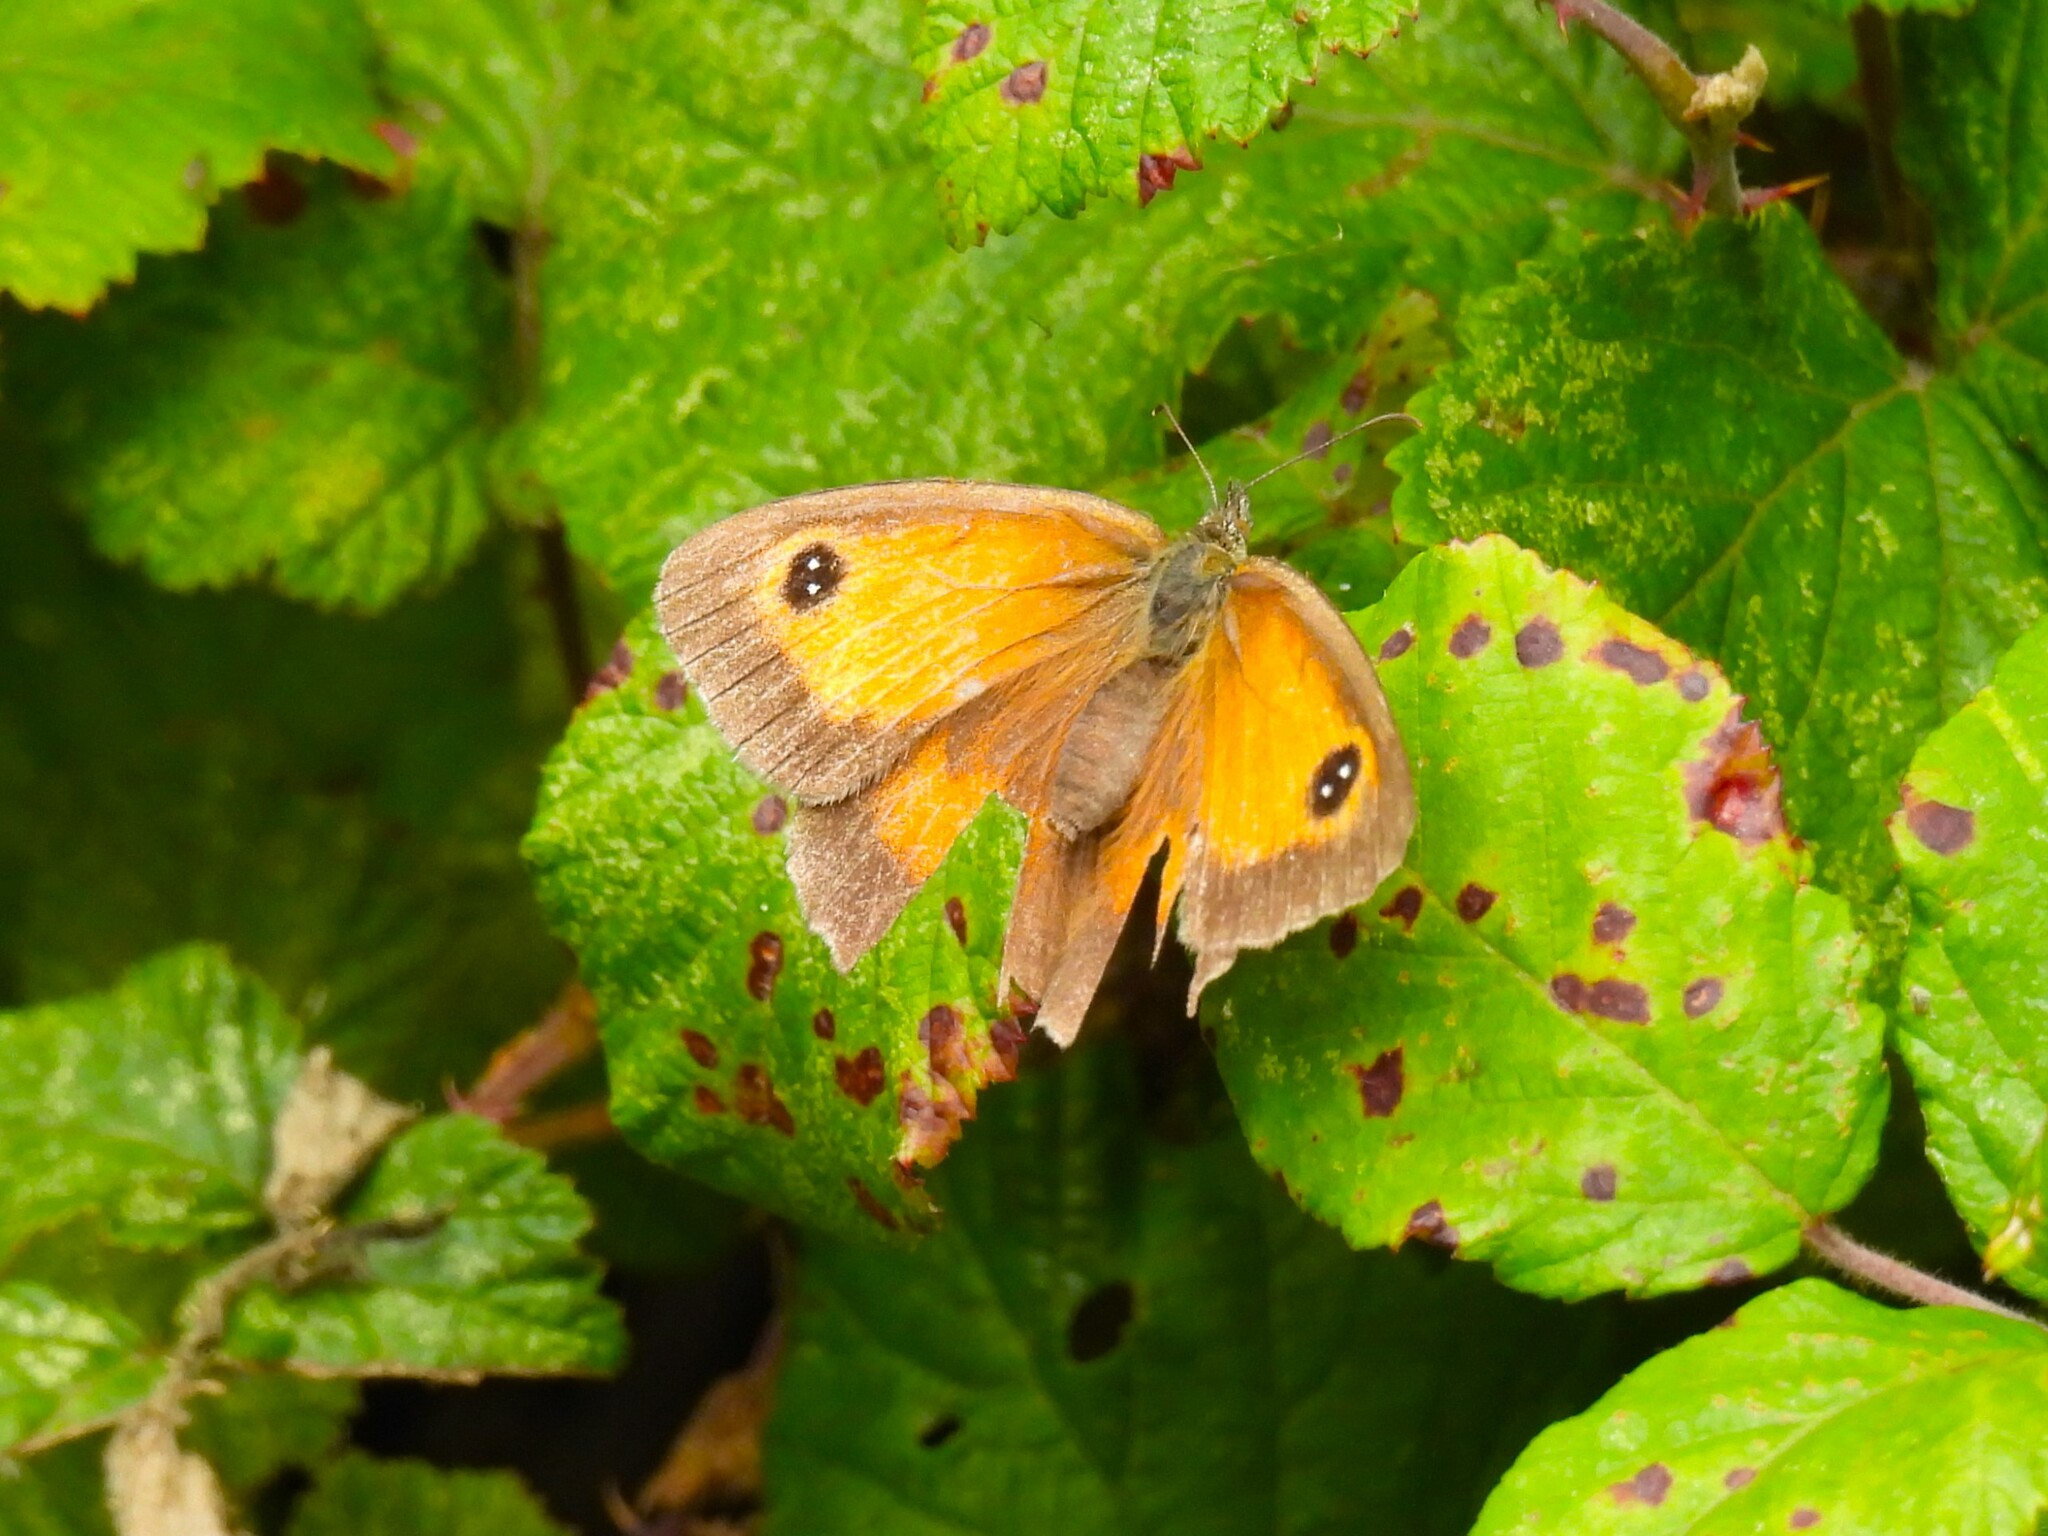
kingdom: Animalia
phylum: Arthropoda
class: Insecta
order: Lepidoptera
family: Nymphalidae
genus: Pyronia
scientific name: Pyronia tithonus
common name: Gatekeeper
